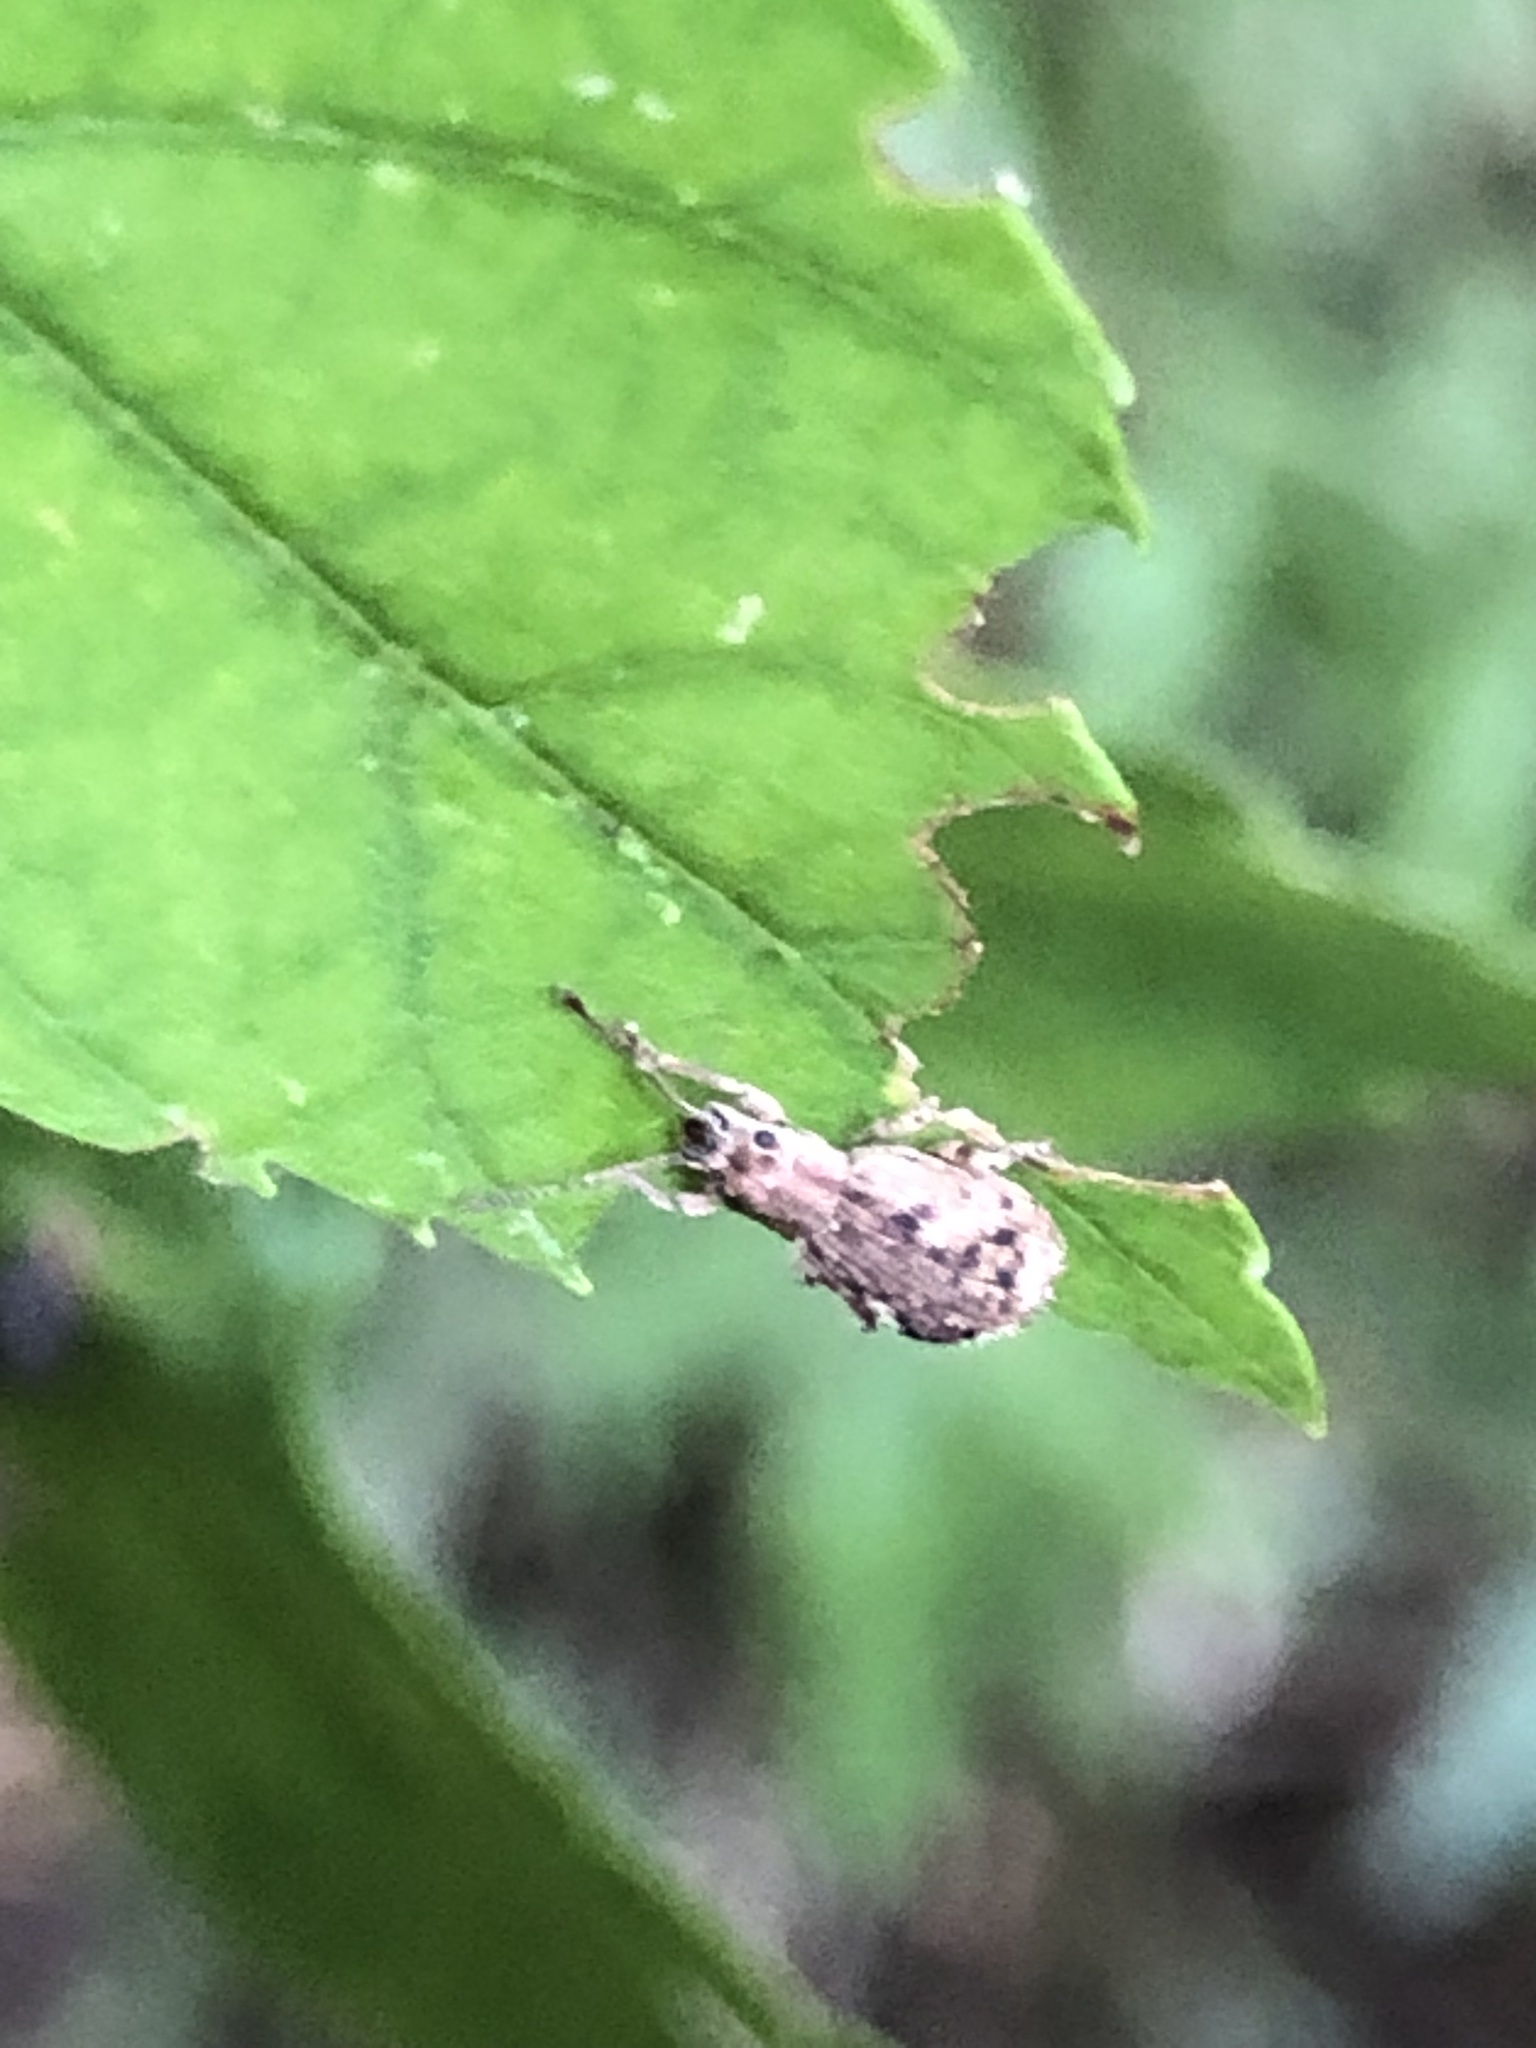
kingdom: Animalia
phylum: Arthropoda
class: Insecta
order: Coleoptera
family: Curculionidae
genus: Pseudoedophrys
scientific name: Pseudoedophrys hilleri
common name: Weevil
